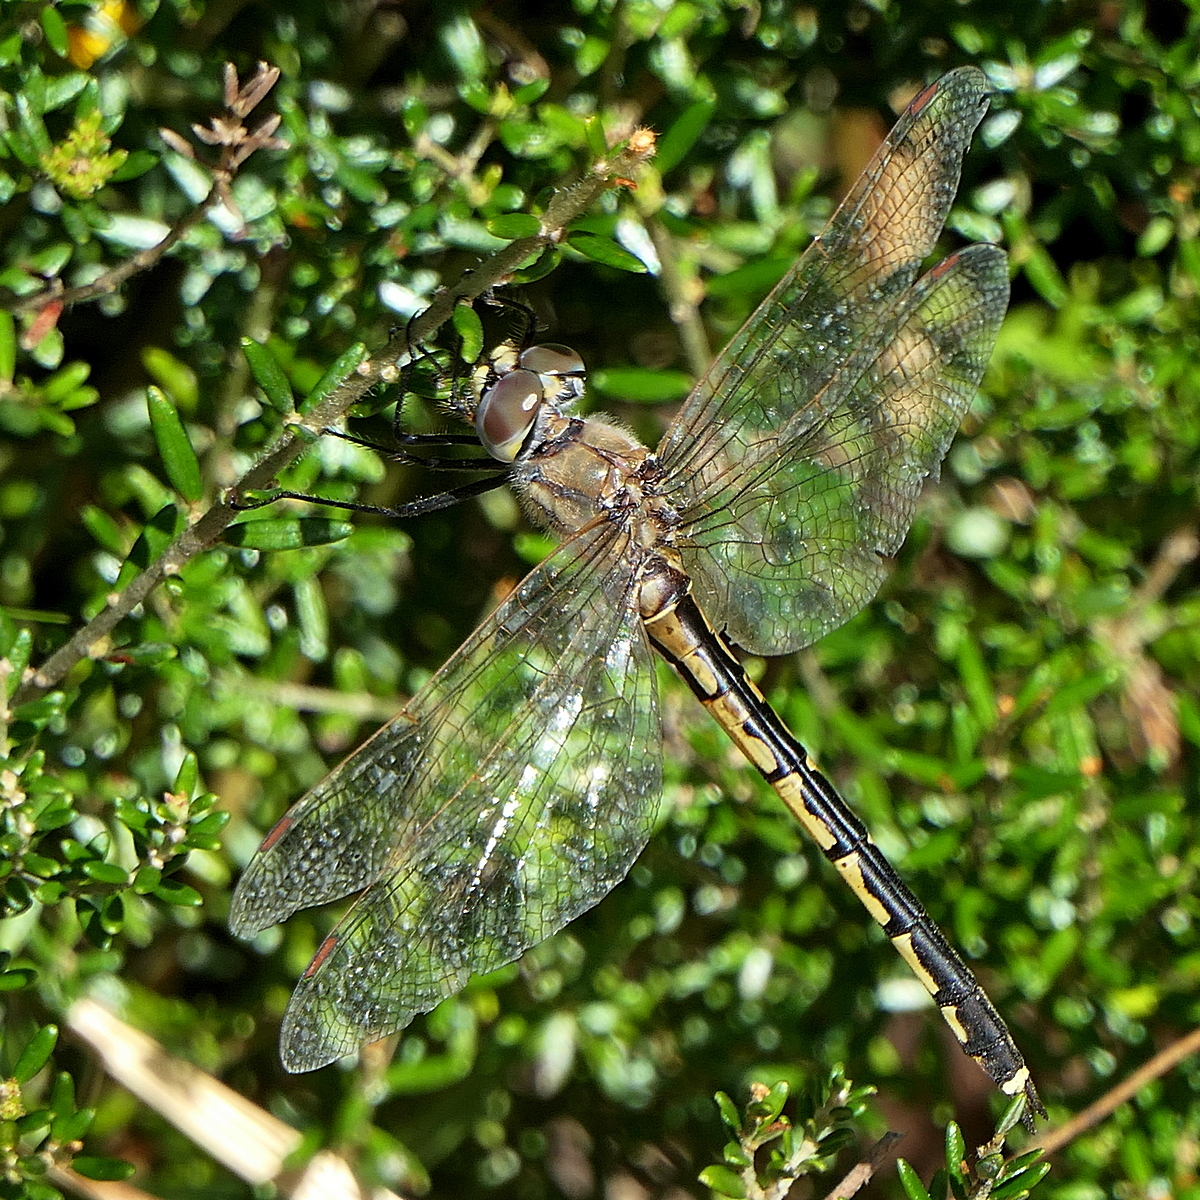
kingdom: Animalia
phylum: Arthropoda
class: Insecta
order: Odonata
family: Corduliidae
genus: Hemicordulia
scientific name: Hemicordulia tau
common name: Tau emerald
